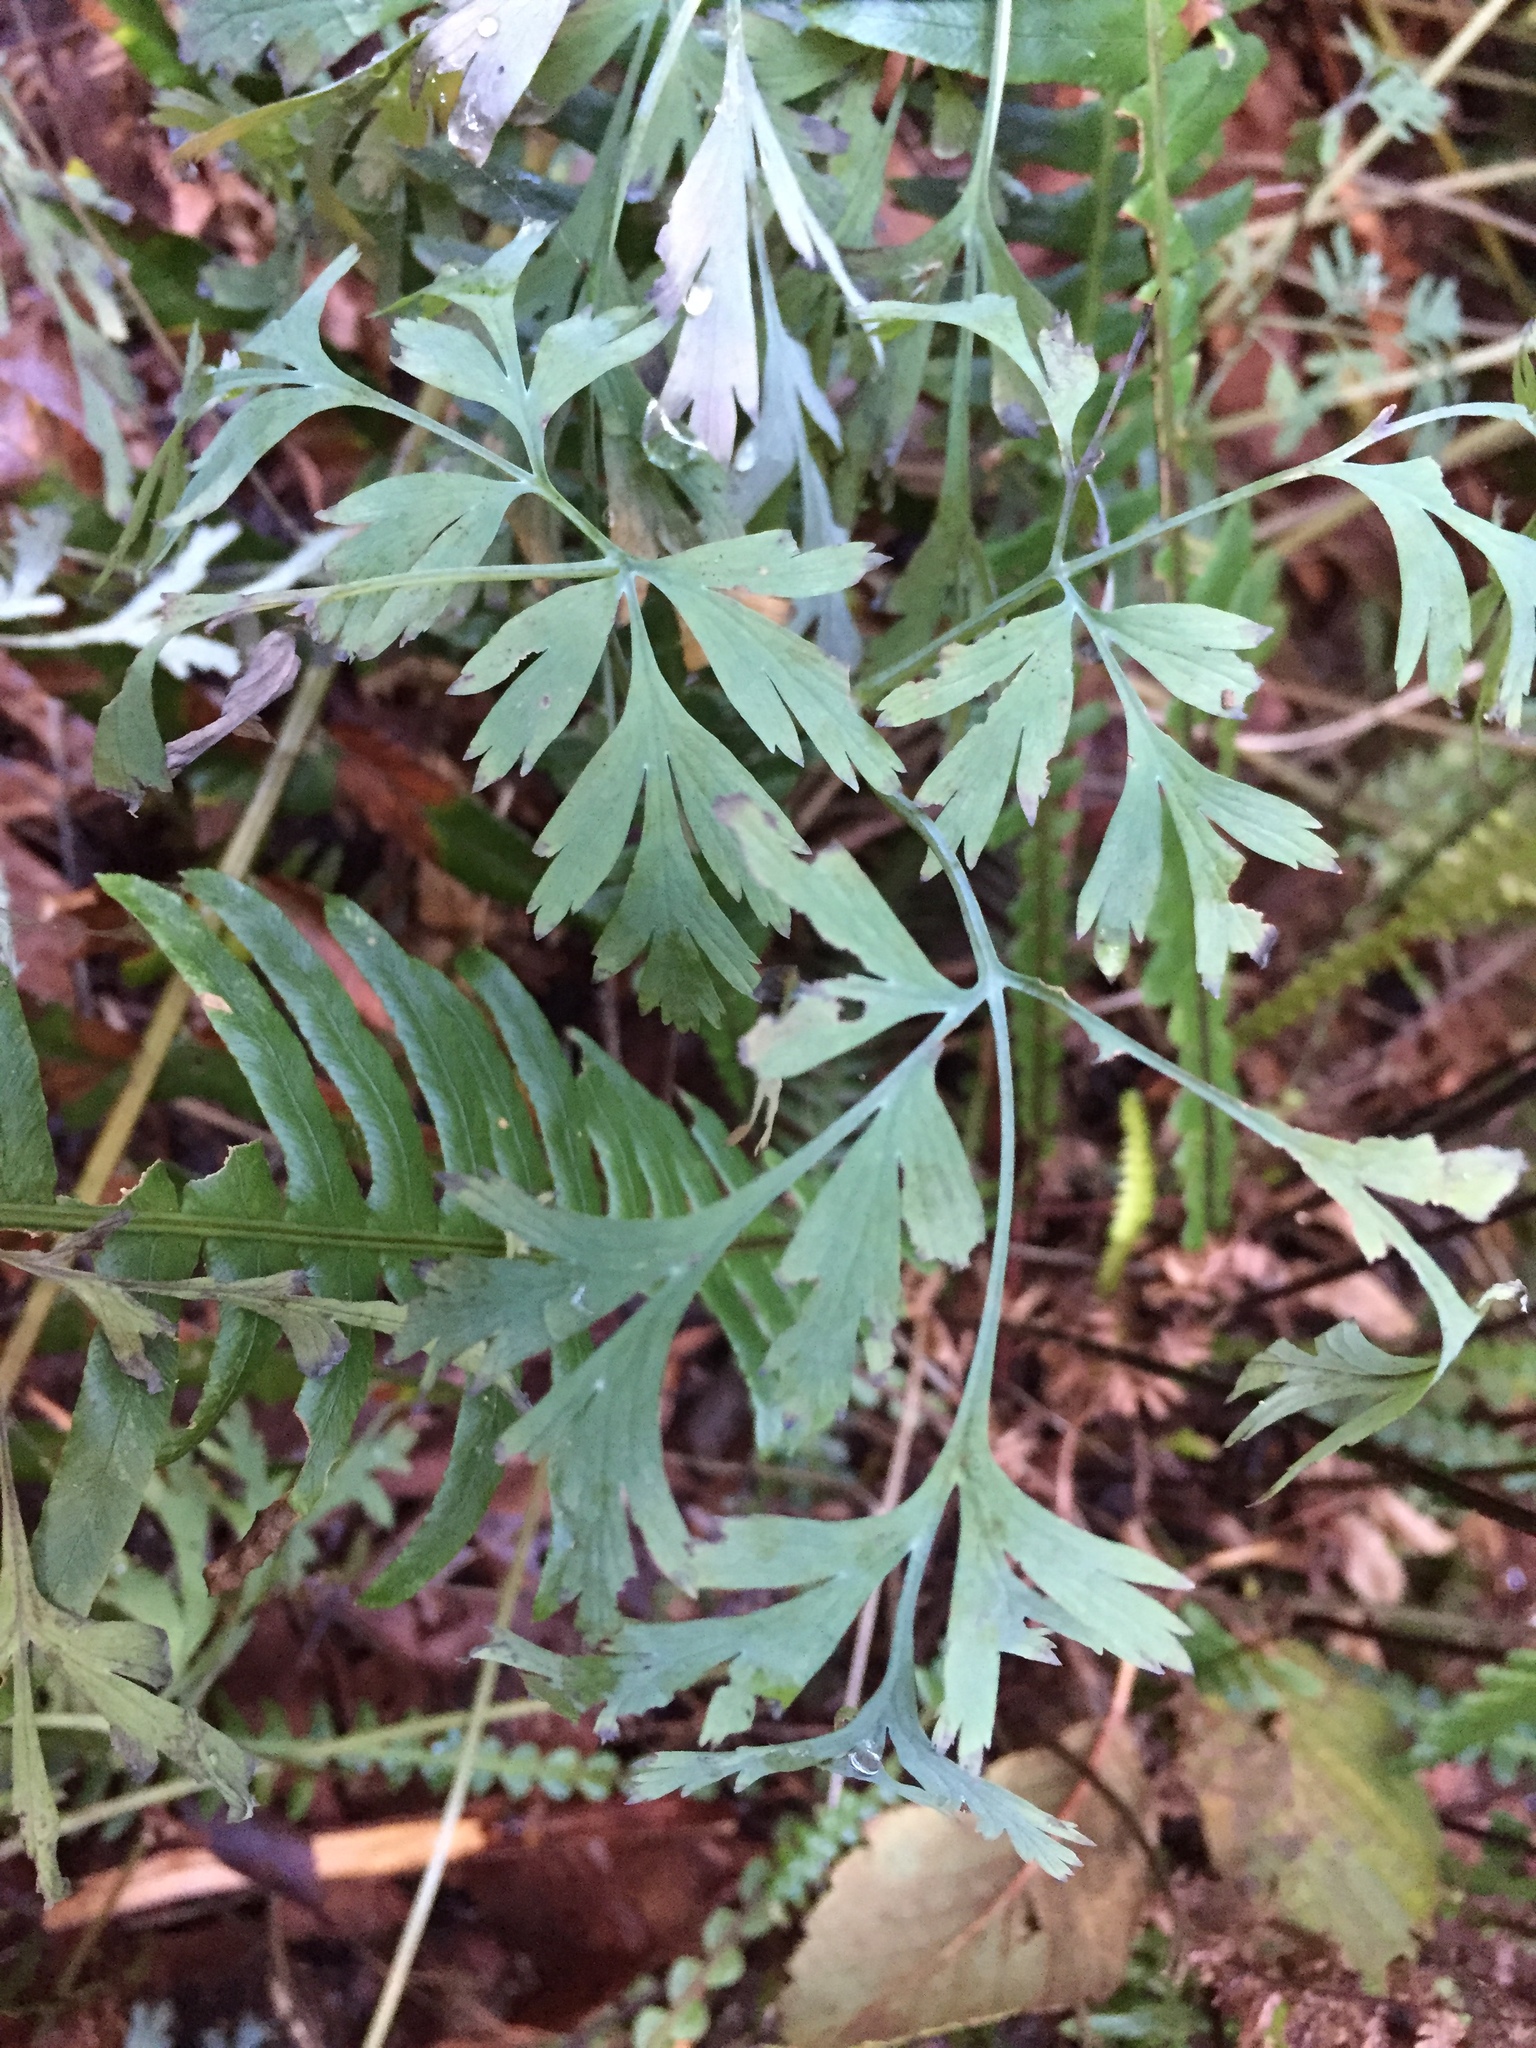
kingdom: Plantae
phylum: Tracheophyta
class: Magnoliopsida
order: Ranunculales
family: Papaveraceae
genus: Dicentra
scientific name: Dicentra formosa
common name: Bleeding-heart
